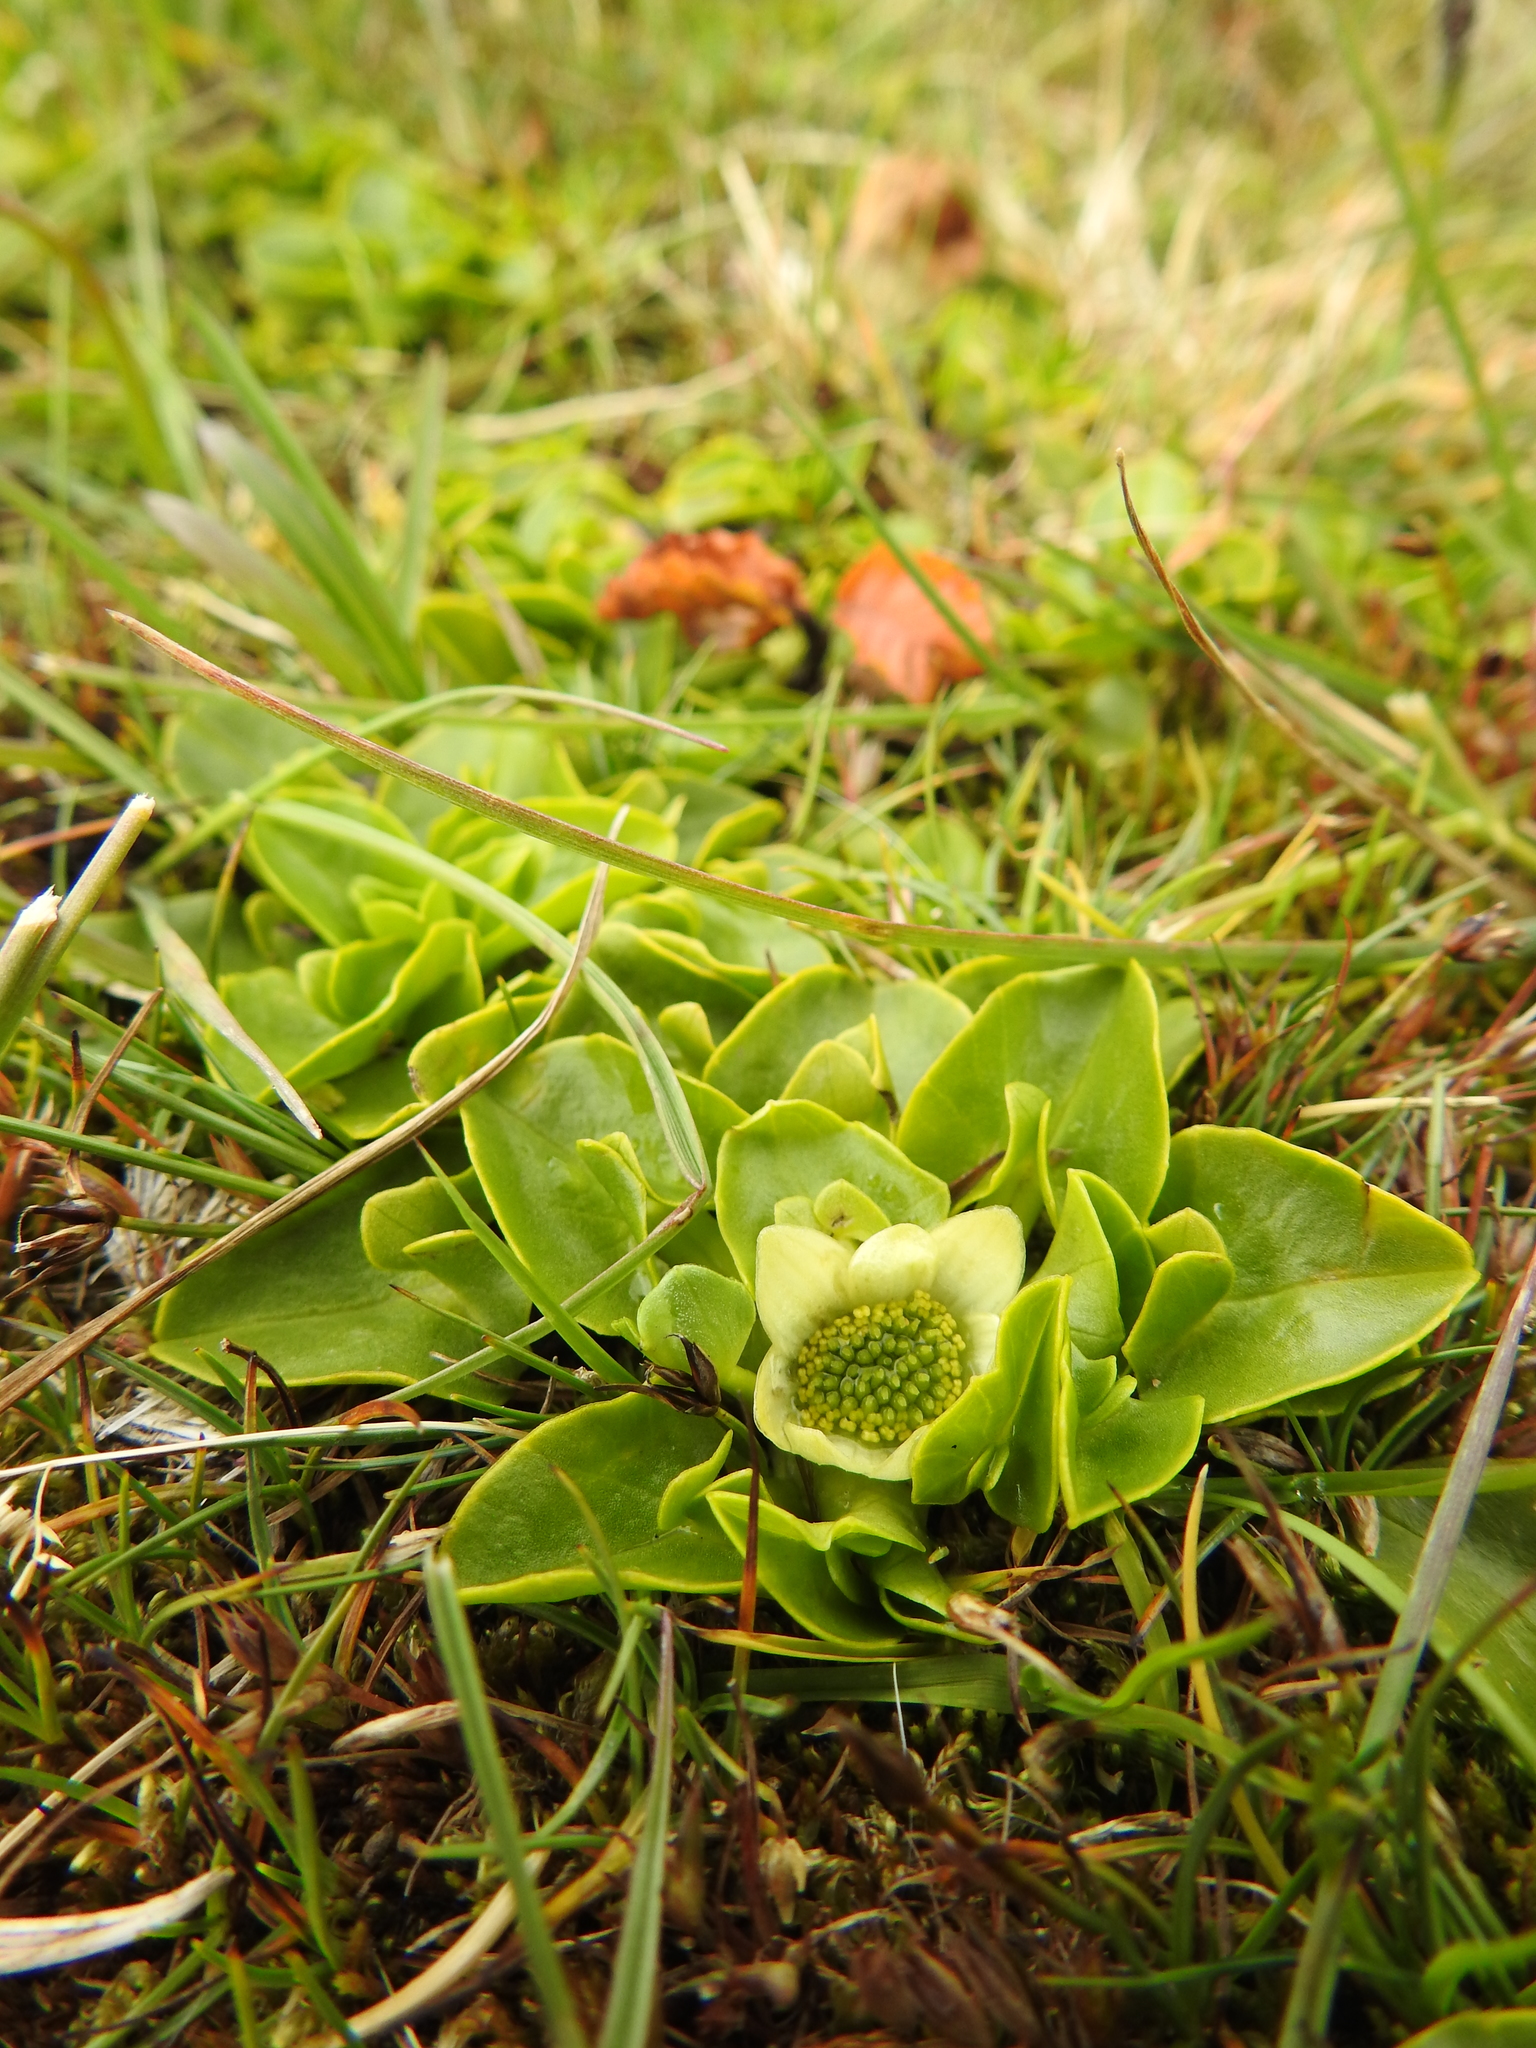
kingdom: Plantae
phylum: Tracheophyta
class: Magnoliopsida
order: Ranunculales
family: Ranunculaceae
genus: Caltha
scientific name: Caltha sagittata
